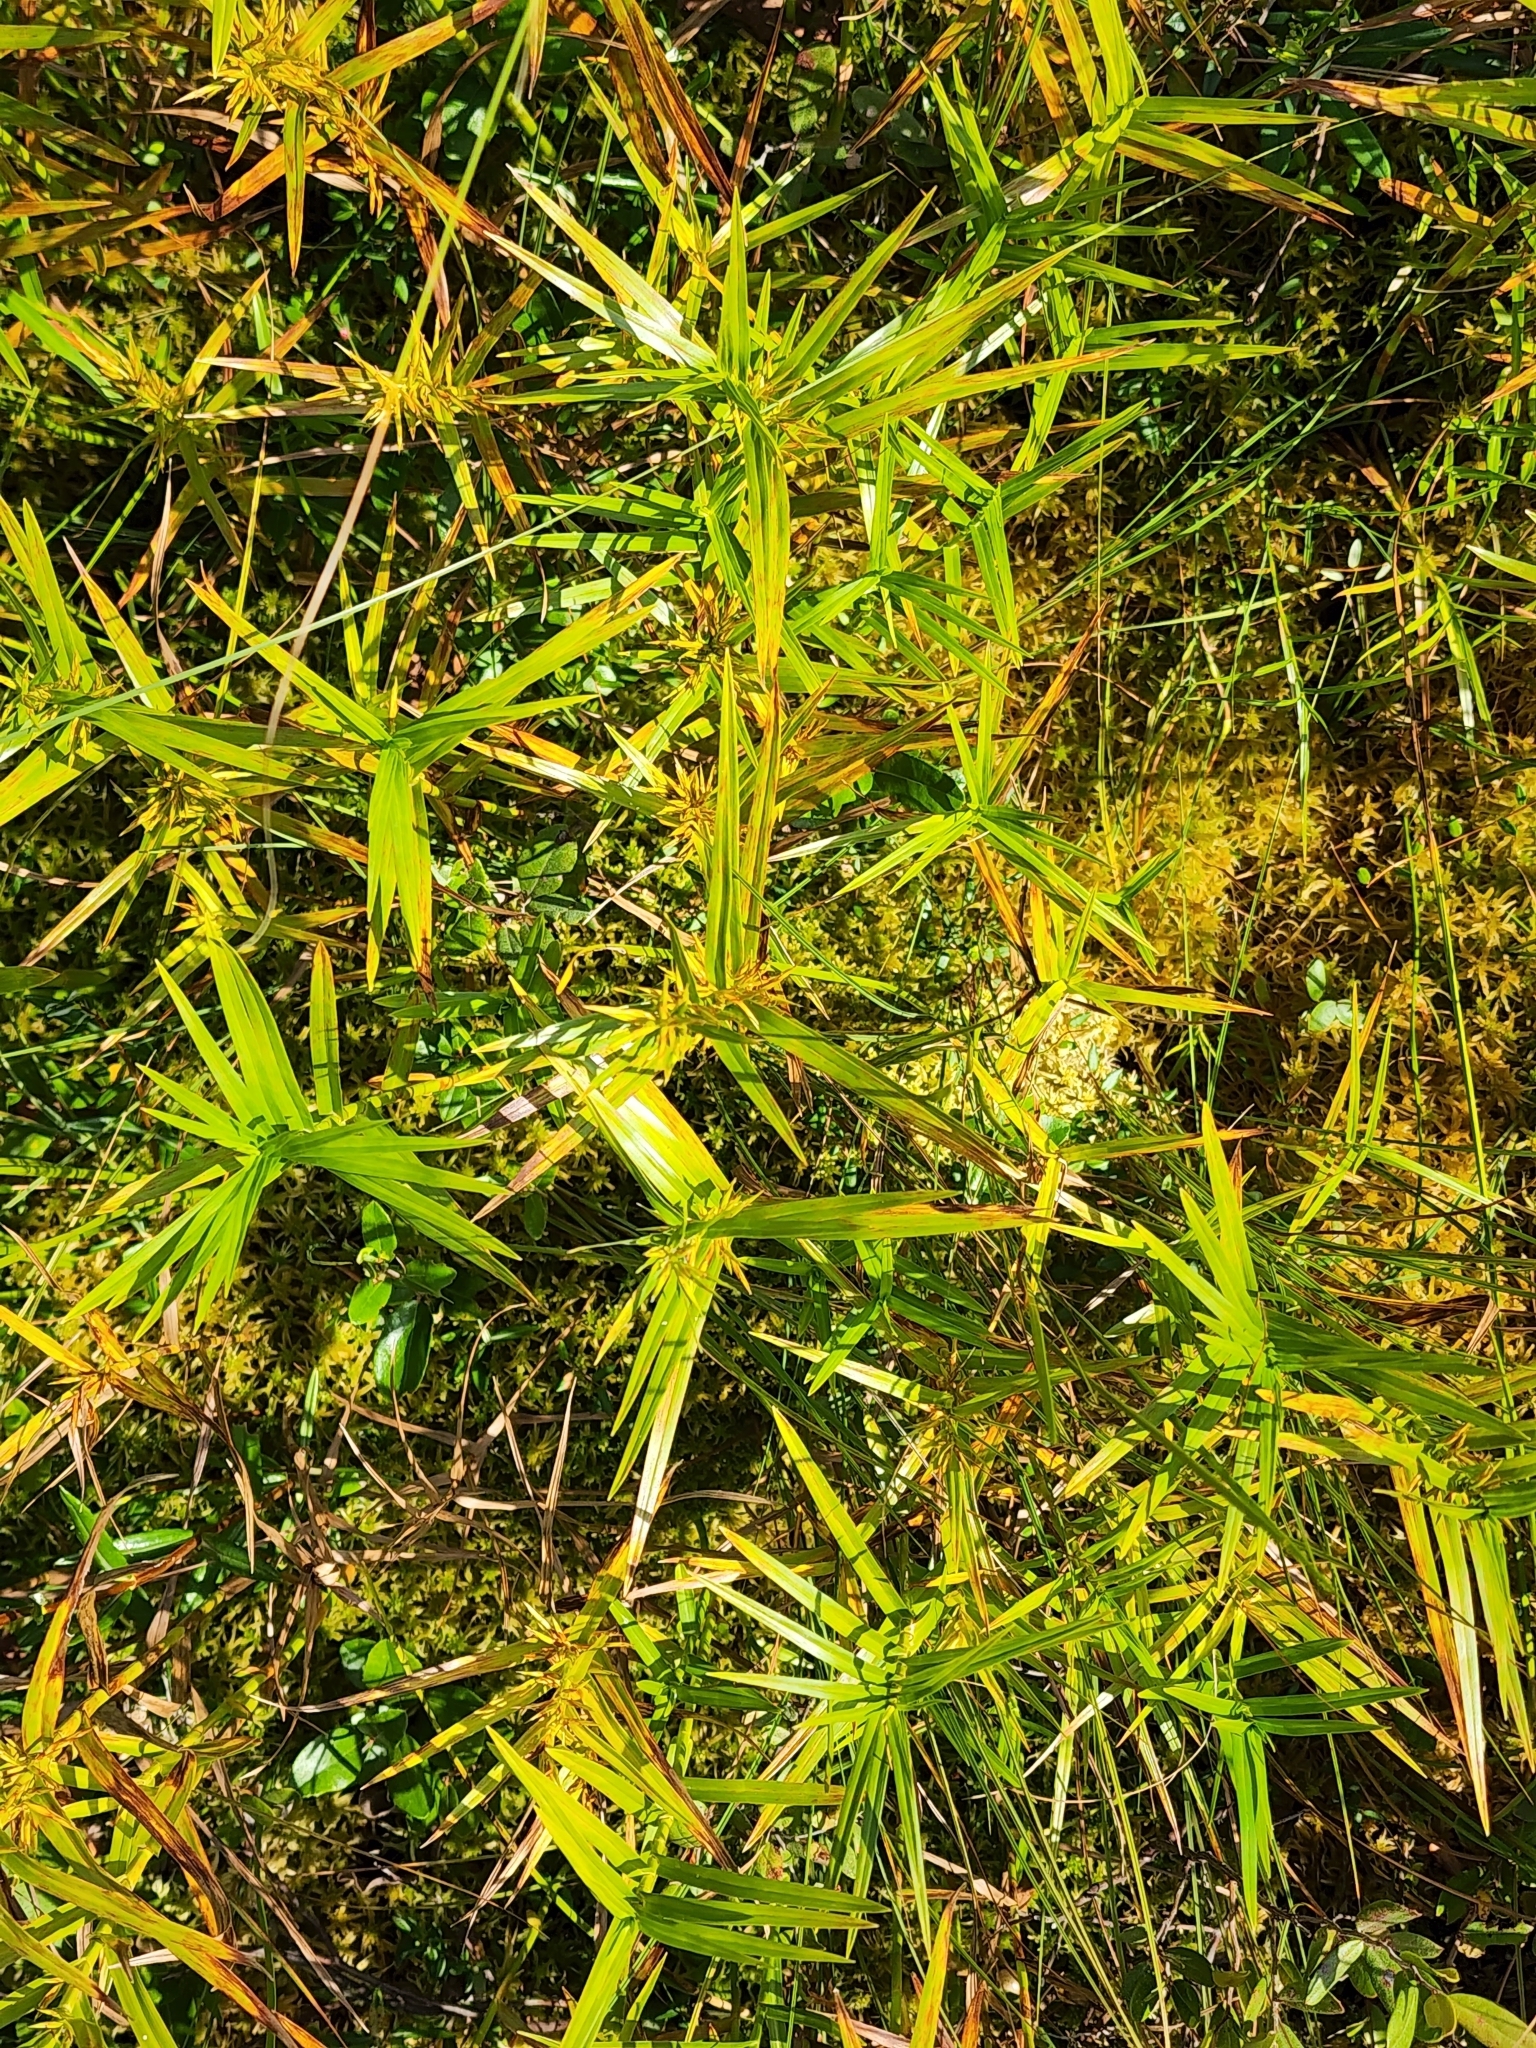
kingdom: Plantae
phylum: Tracheophyta
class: Liliopsida
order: Poales
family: Cyperaceae
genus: Dulichium
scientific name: Dulichium arundinaceum
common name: Three-way sedge
